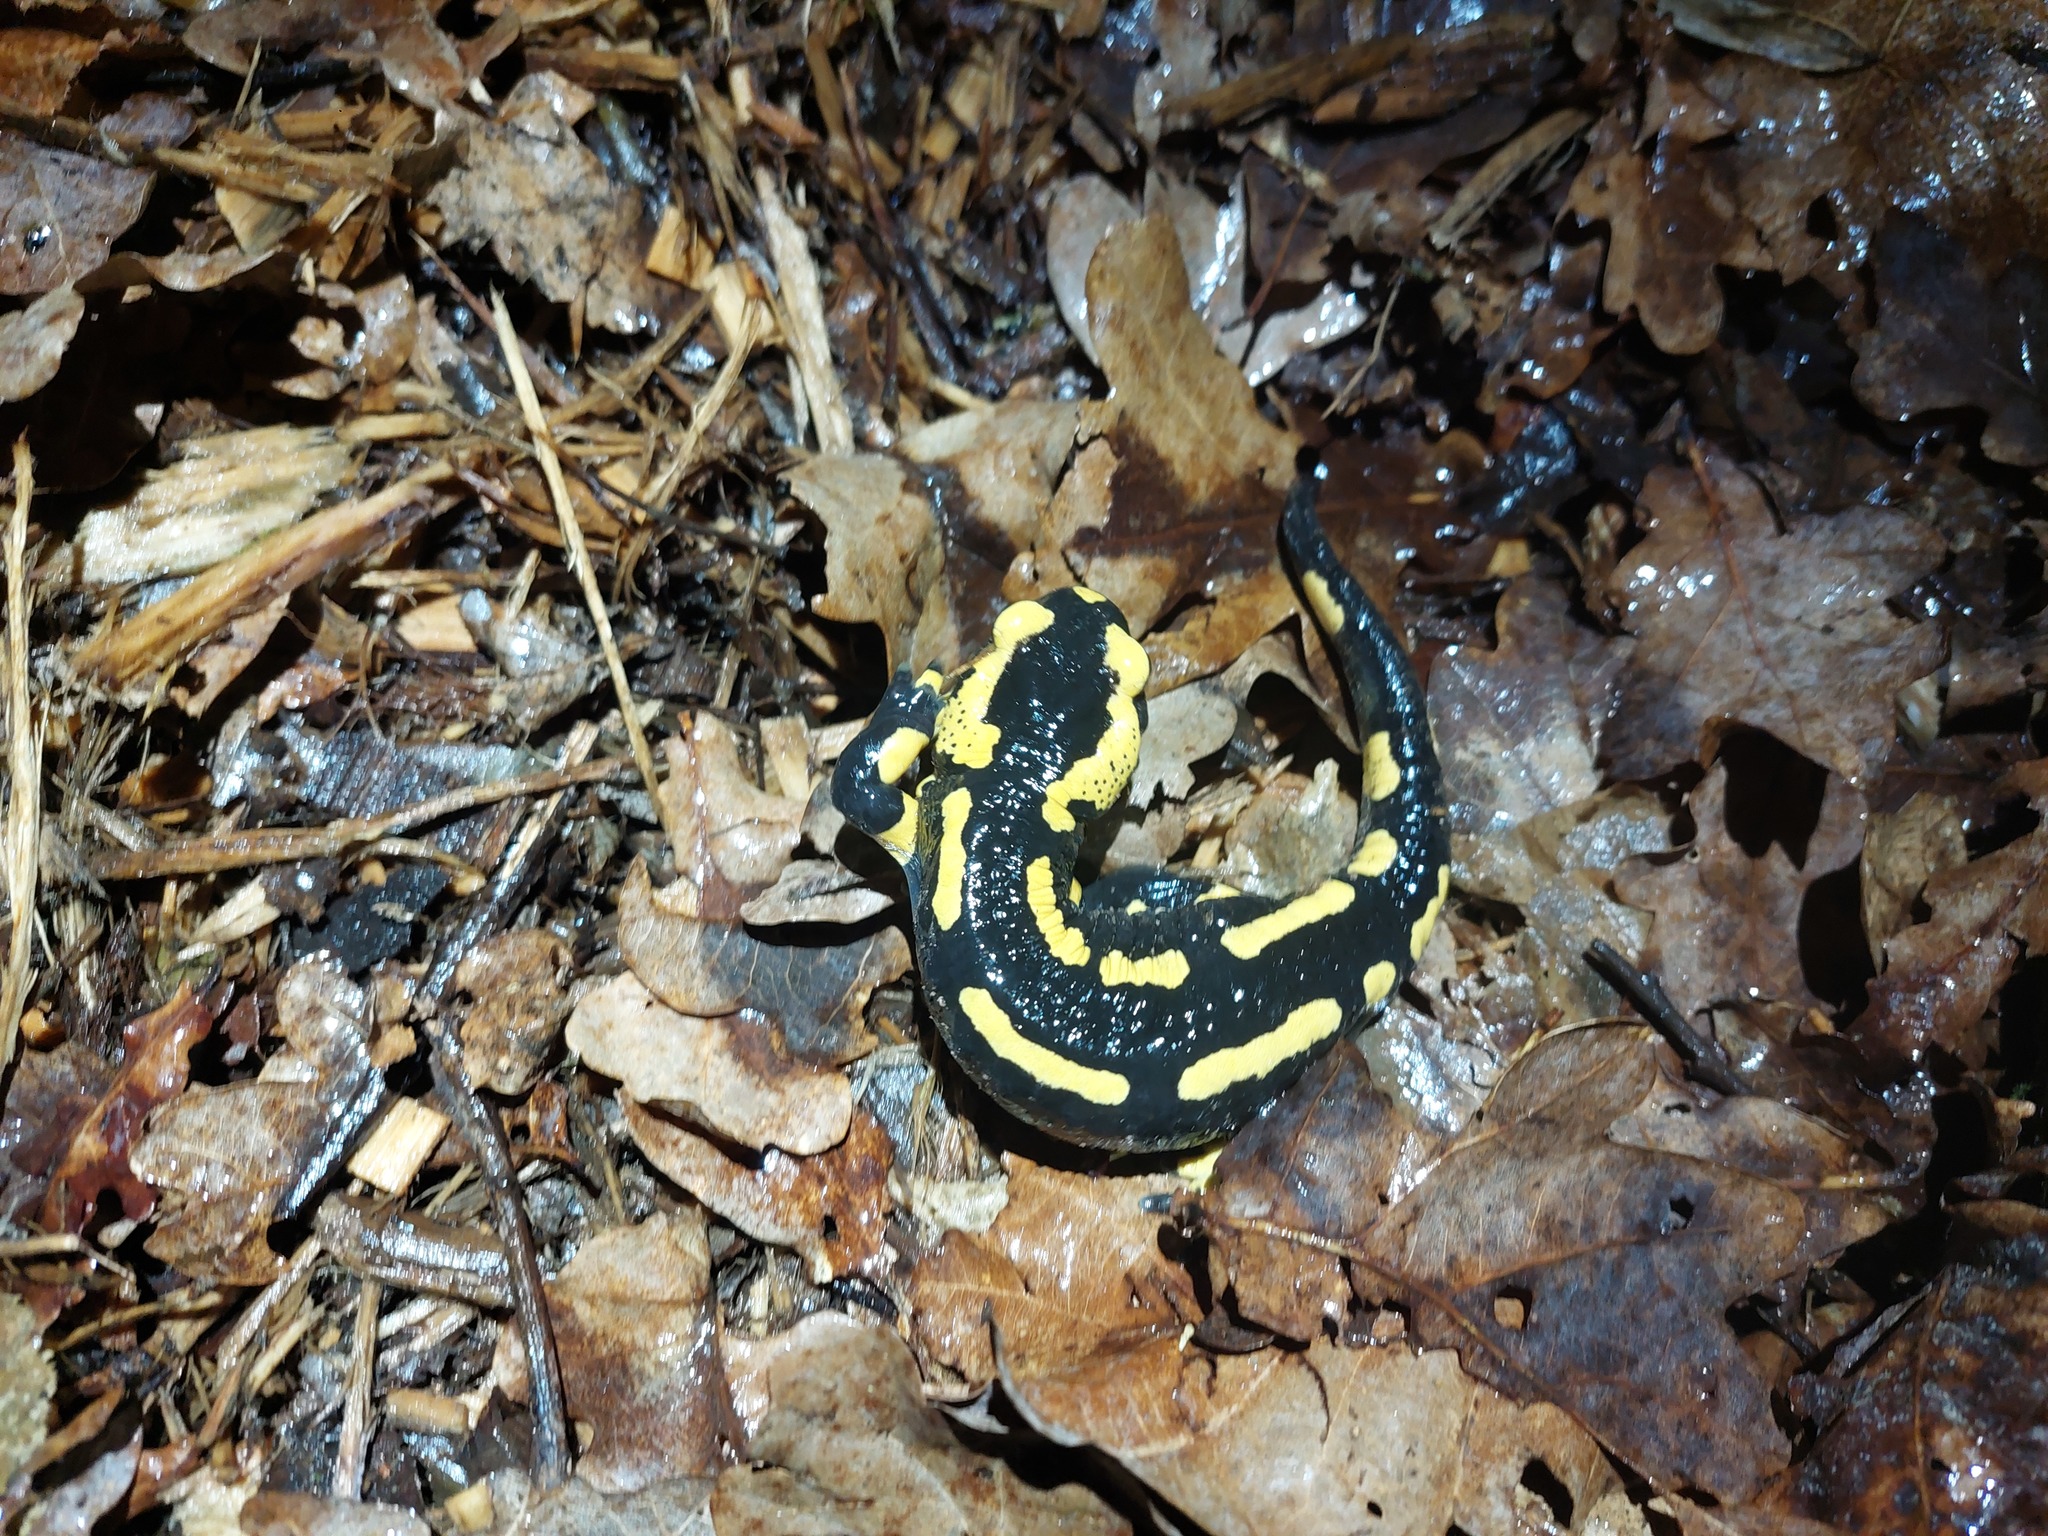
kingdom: Animalia
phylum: Chordata
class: Amphibia
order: Caudata
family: Salamandridae
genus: Salamandra
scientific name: Salamandra salamandra
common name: Fire salamander
